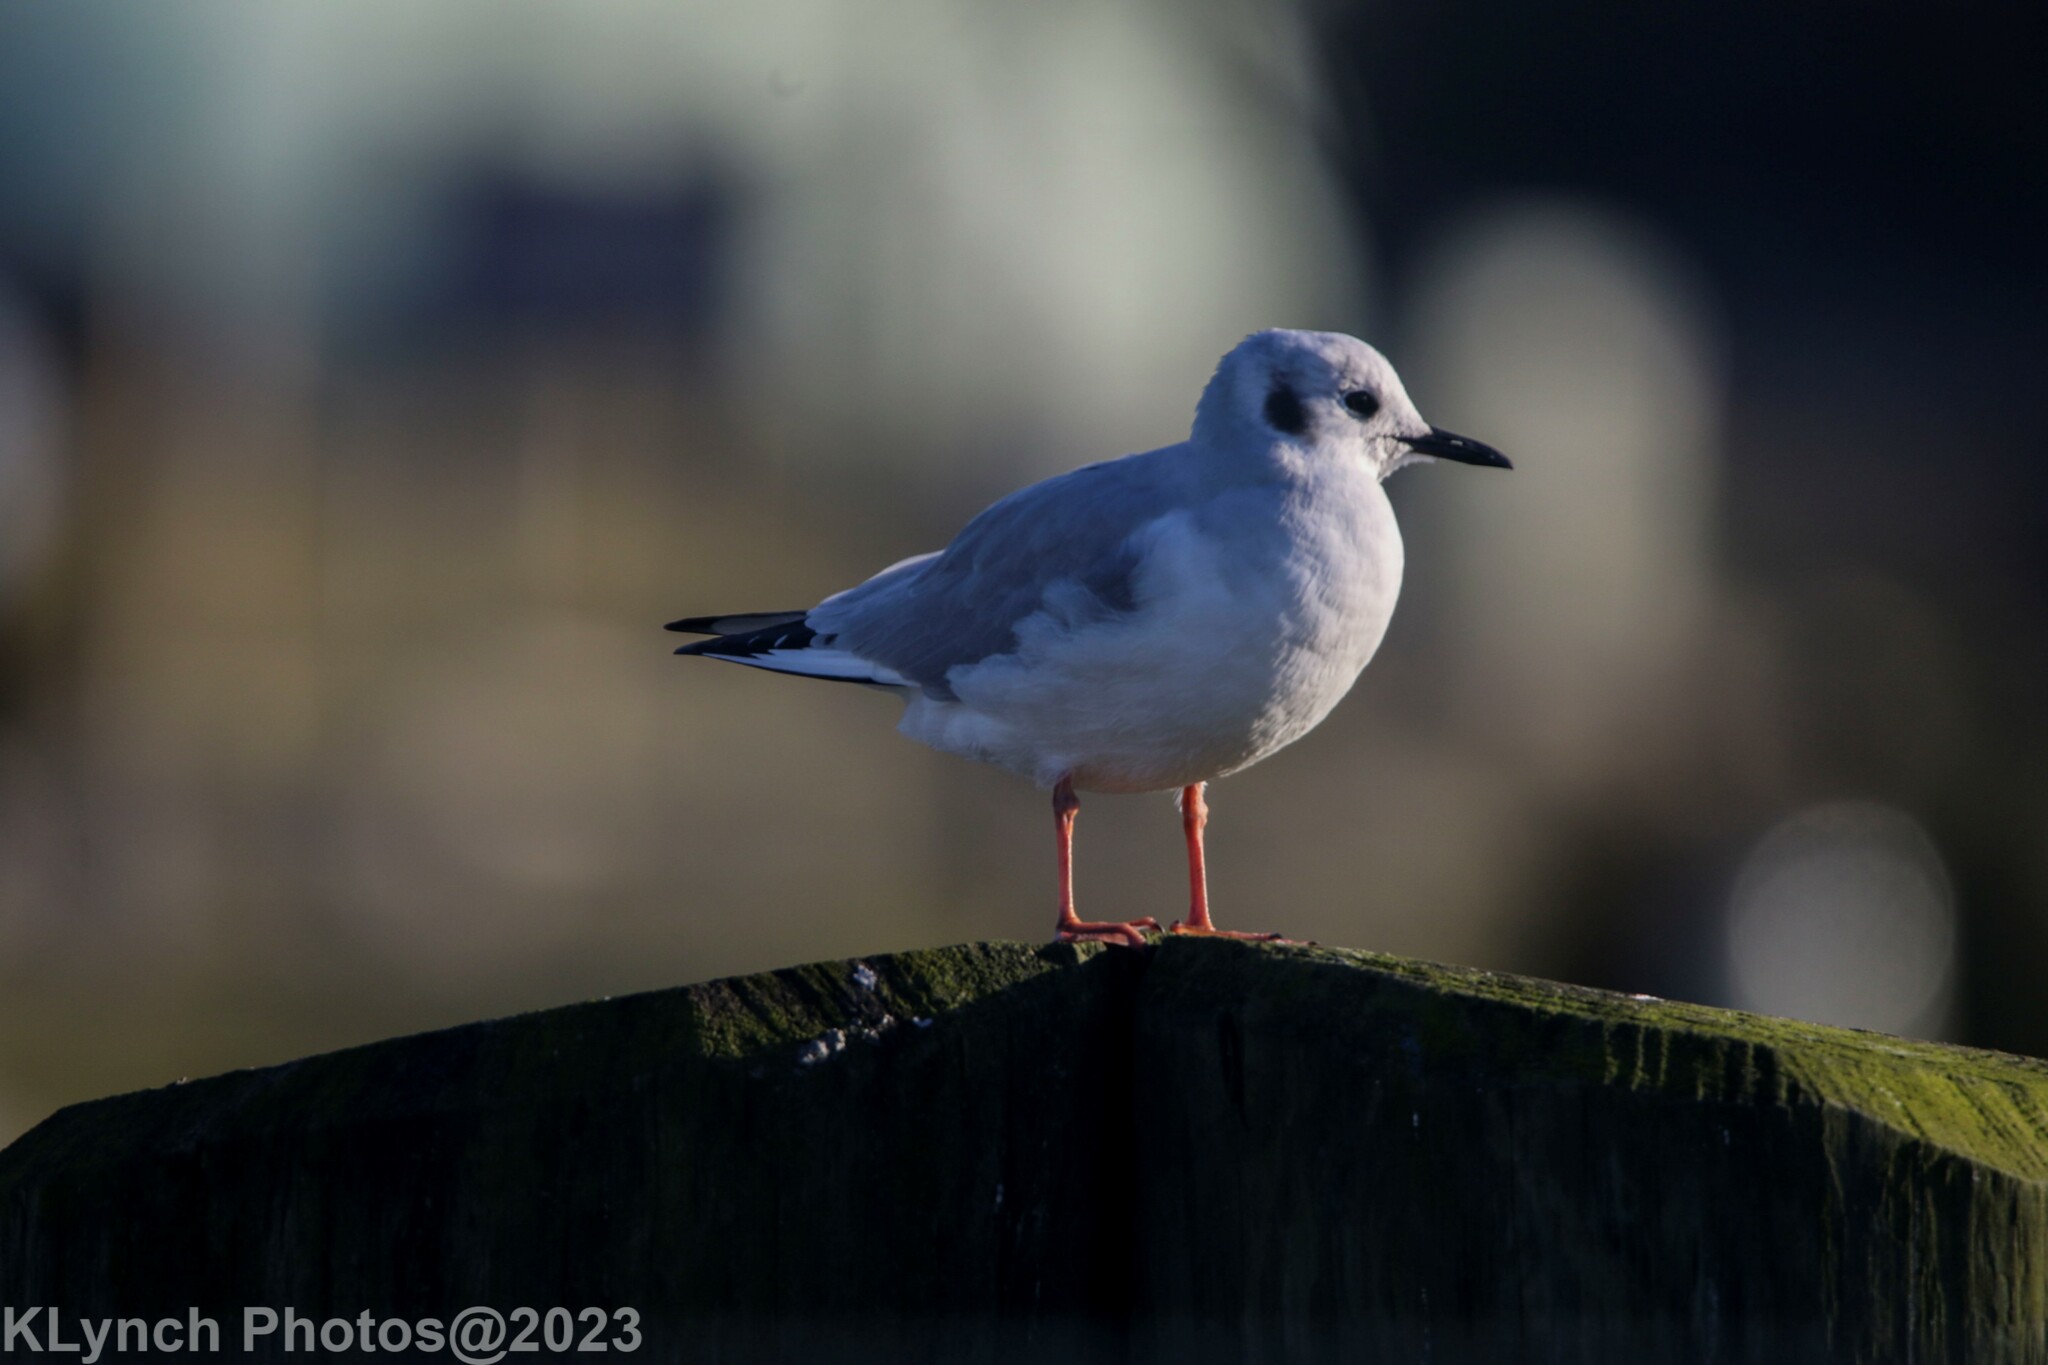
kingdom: Animalia
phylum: Chordata
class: Aves
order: Charadriiformes
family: Laridae
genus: Chroicocephalus
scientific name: Chroicocephalus philadelphia
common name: Bonaparte's gull
